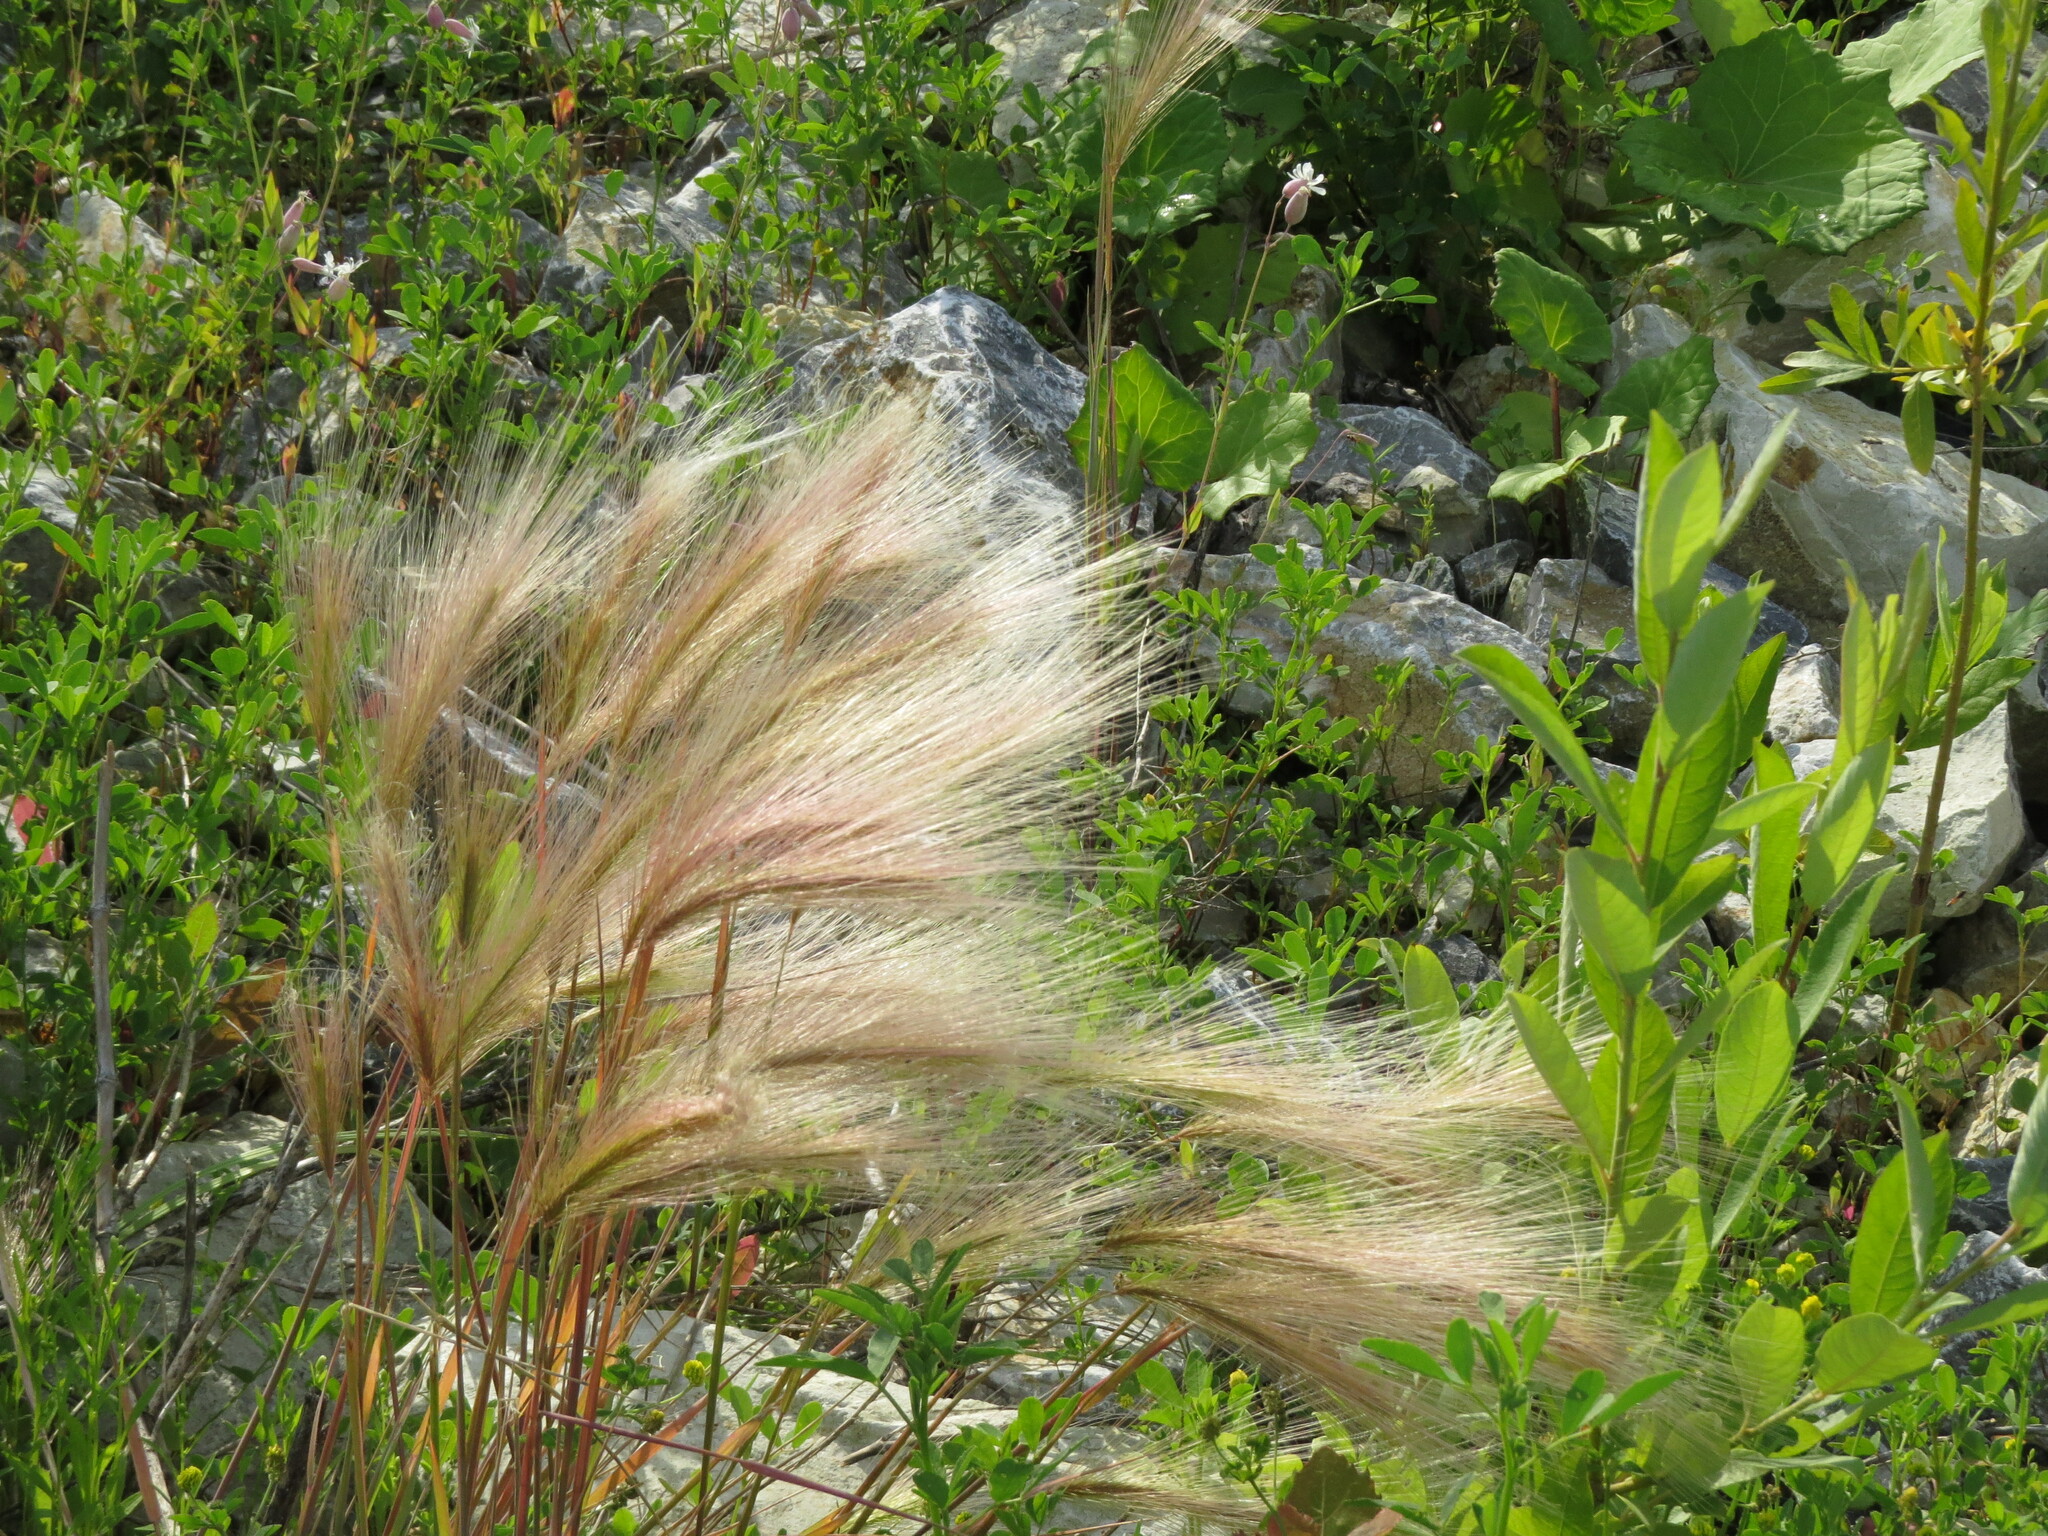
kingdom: Plantae
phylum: Tracheophyta
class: Liliopsida
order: Poales
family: Poaceae
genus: Hordeum
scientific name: Hordeum jubatum
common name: Foxtail barley
